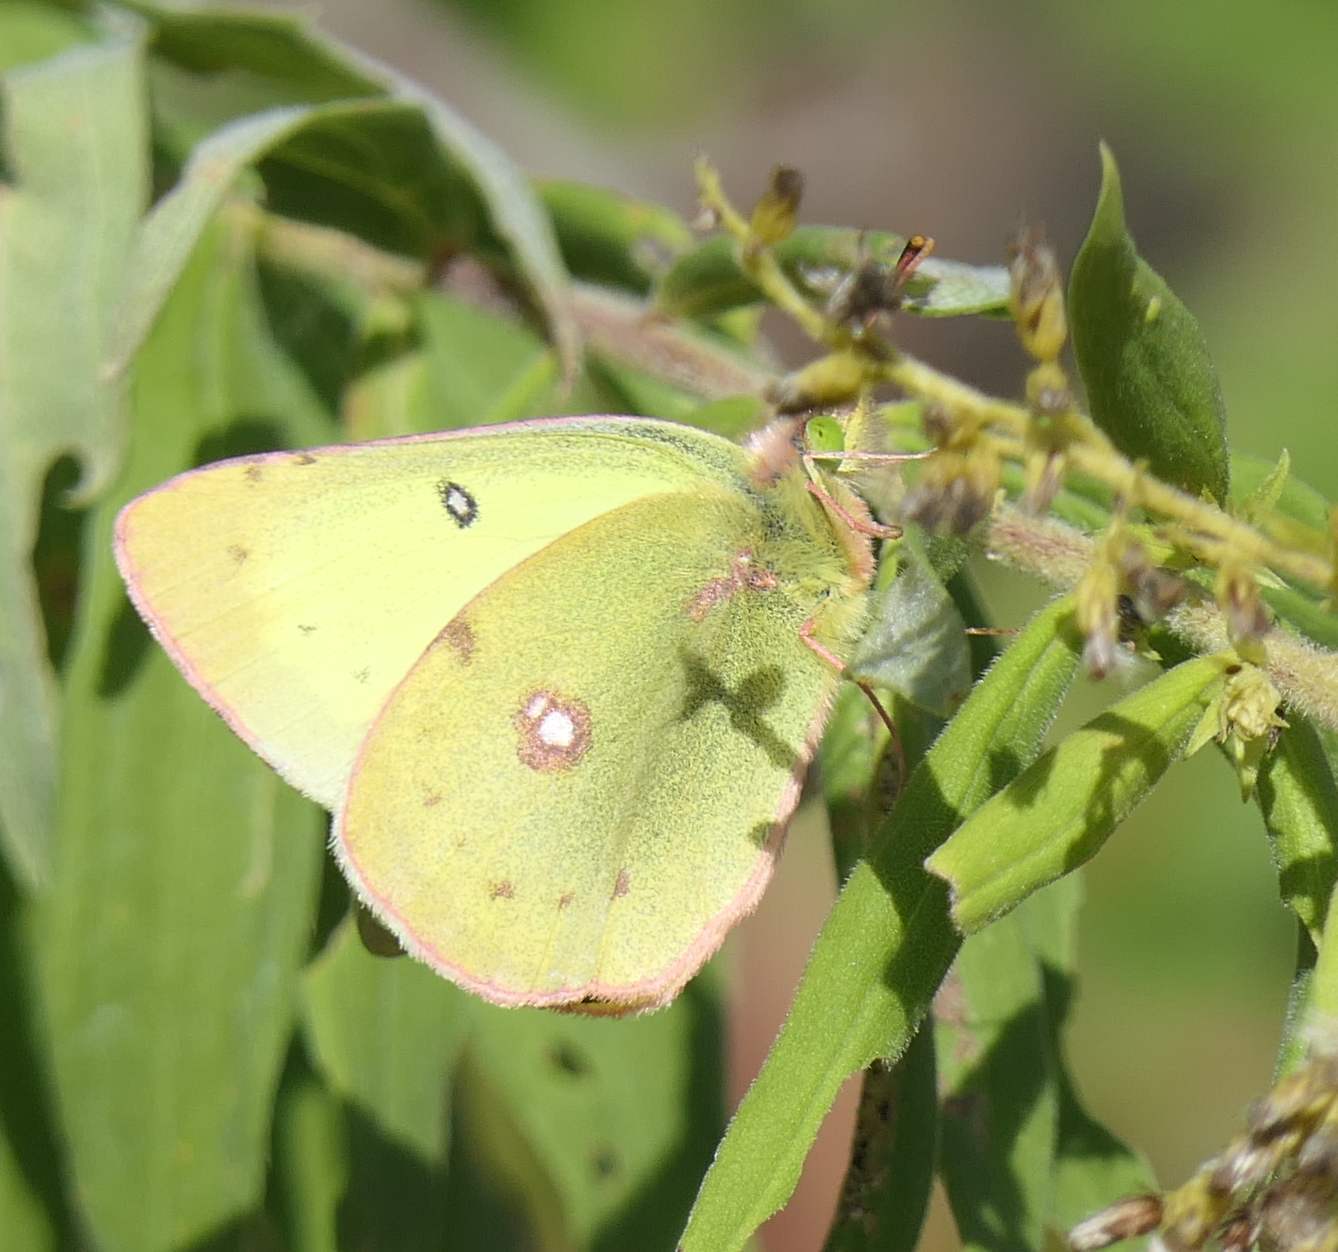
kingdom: Animalia
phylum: Arthropoda
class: Insecta
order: Lepidoptera
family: Pieridae
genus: Colias
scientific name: Colias philodice
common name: Clouded sulphur
